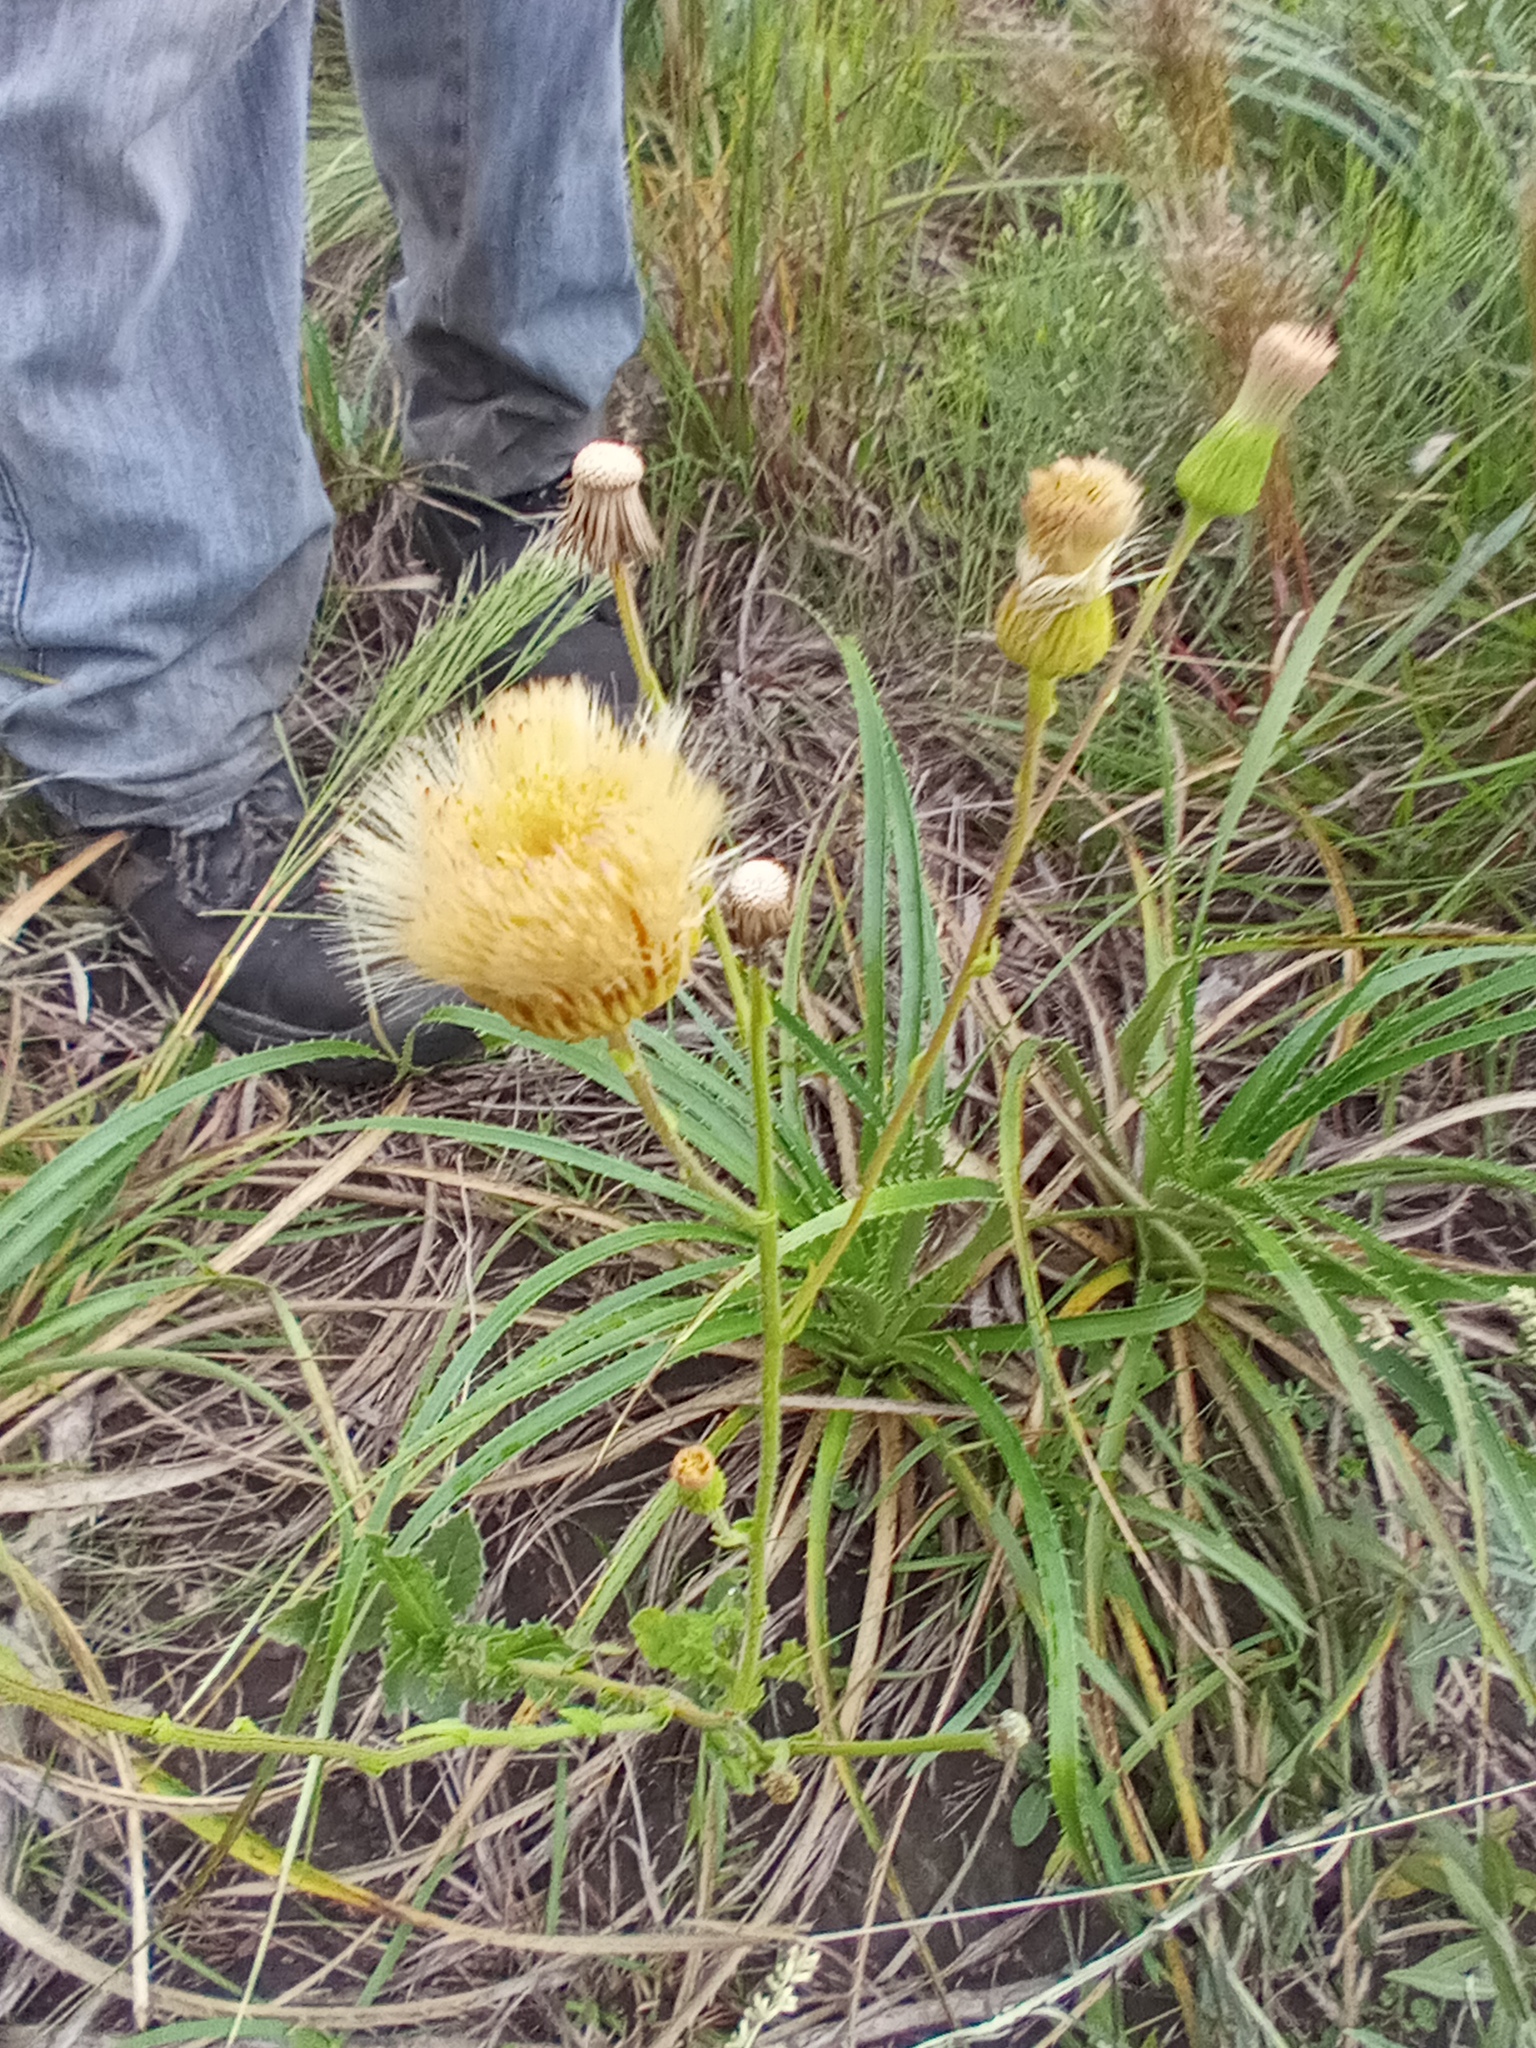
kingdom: Plantae
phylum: Tracheophyta
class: Magnoliopsida
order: Asterales
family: Asteraceae
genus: Podocoma
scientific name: Podocoma hirsuta
